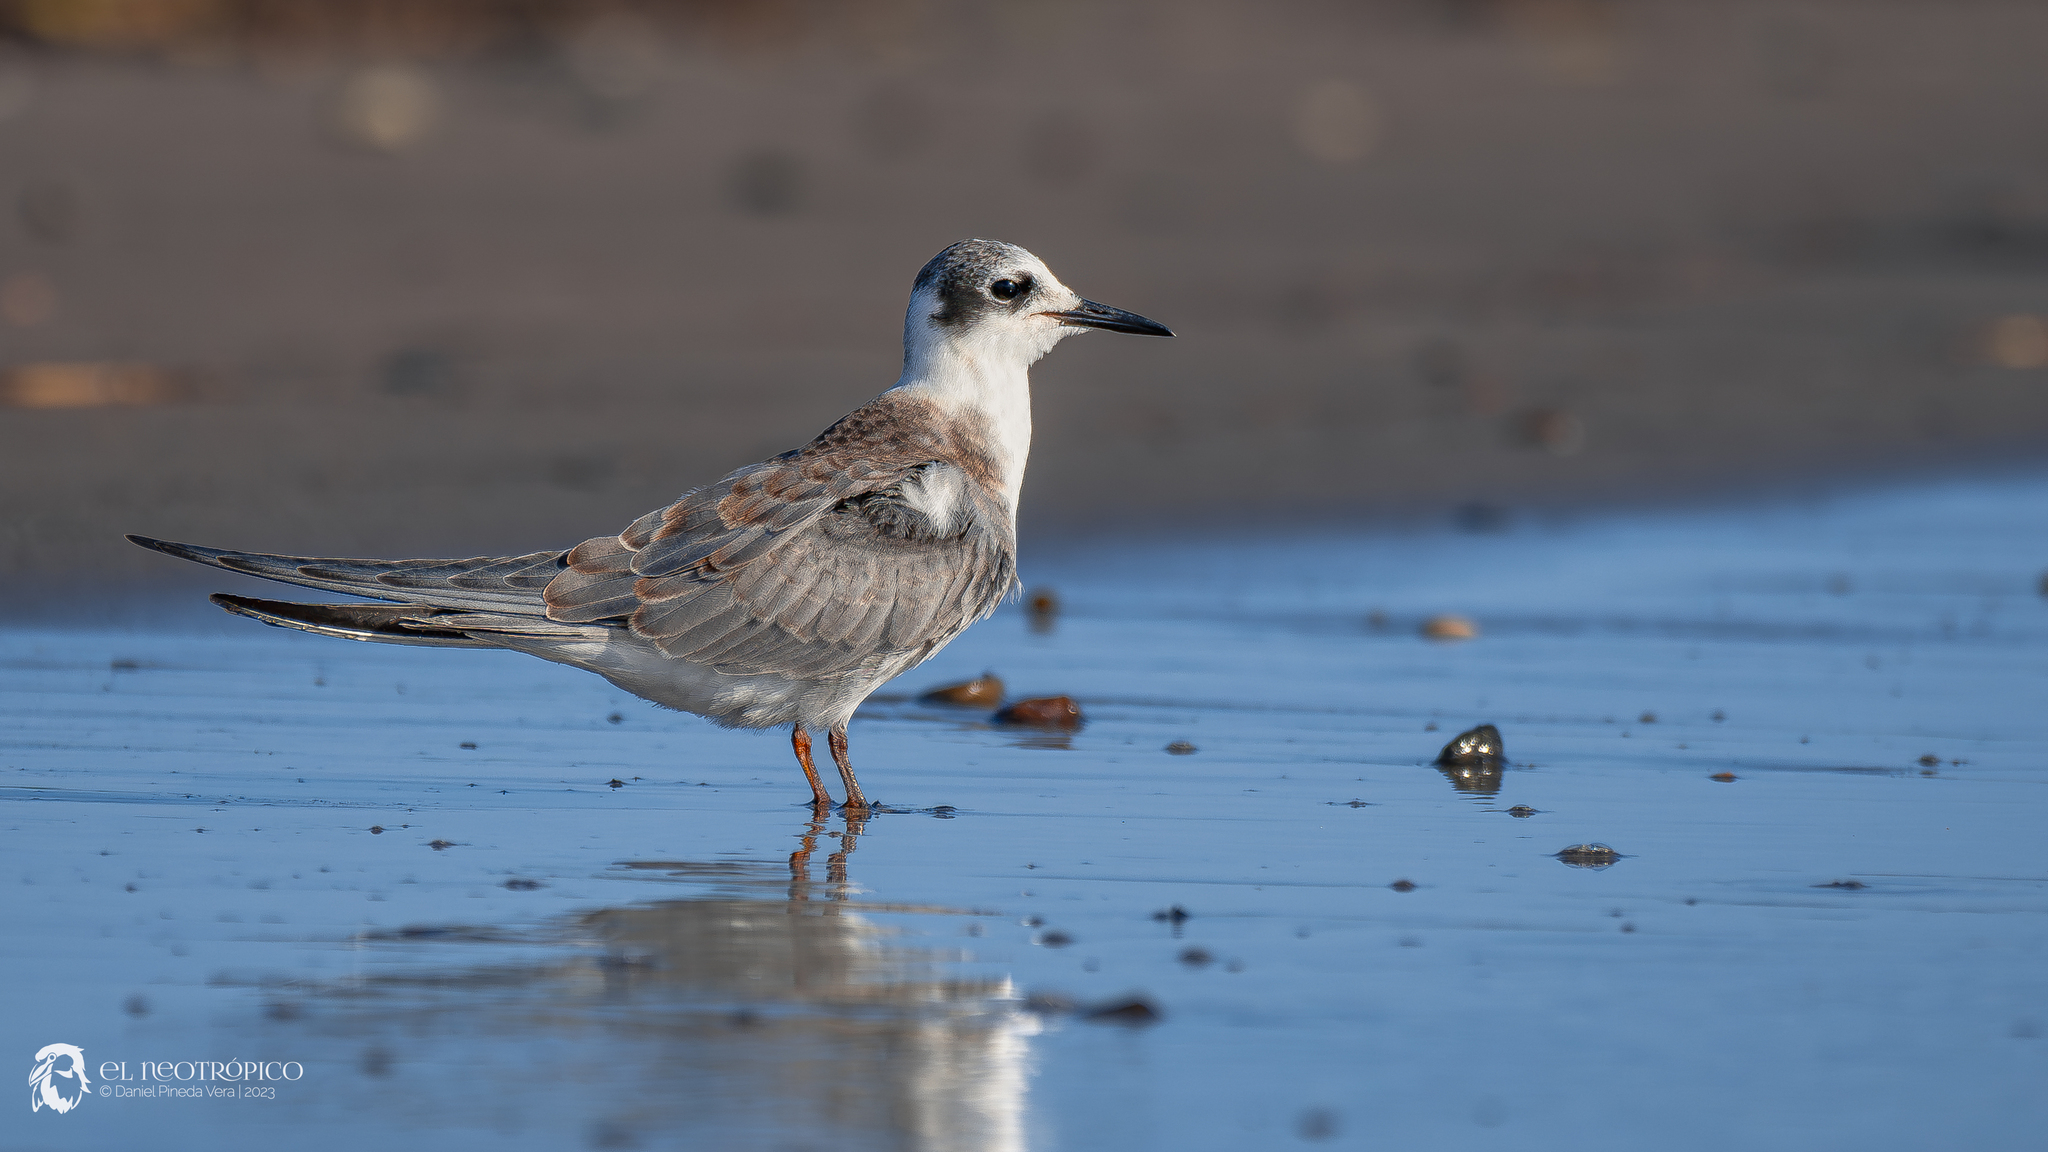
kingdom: Animalia
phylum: Chordata
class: Aves
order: Charadriiformes
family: Laridae
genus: Chlidonias
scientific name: Chlidonias niger
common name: Black tern
